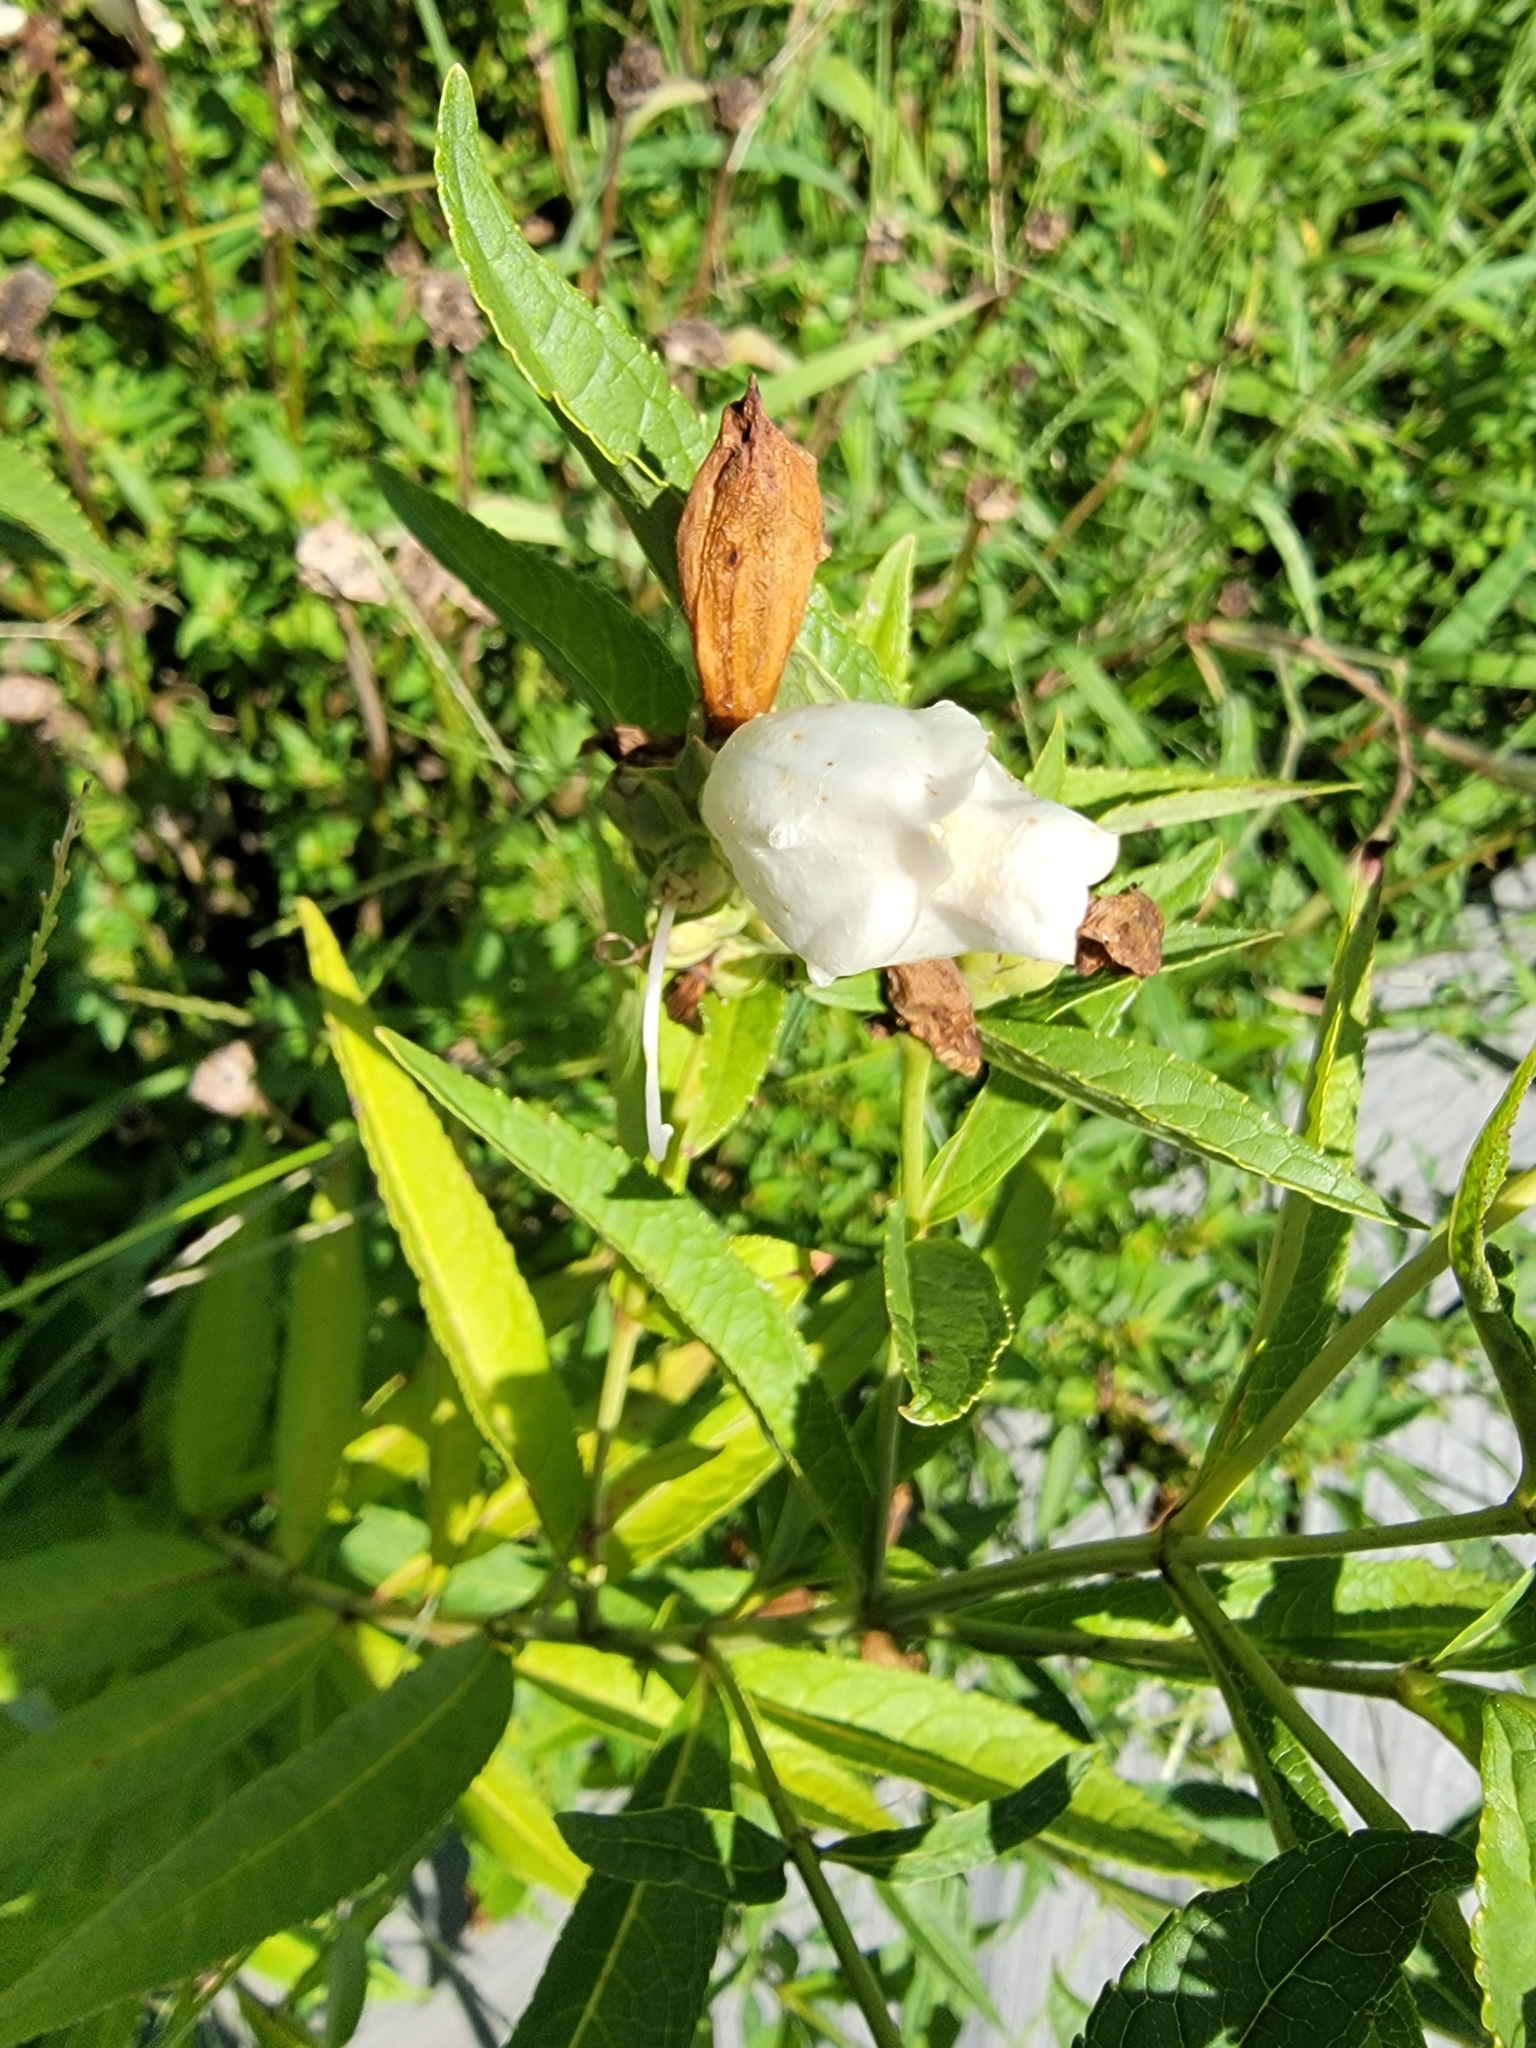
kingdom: Plantae
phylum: Tracheophyta
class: Magnoliopsida
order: Lamiales
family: Plantaginaceae
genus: Chelone
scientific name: Chelone glabra
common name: Snakehead
